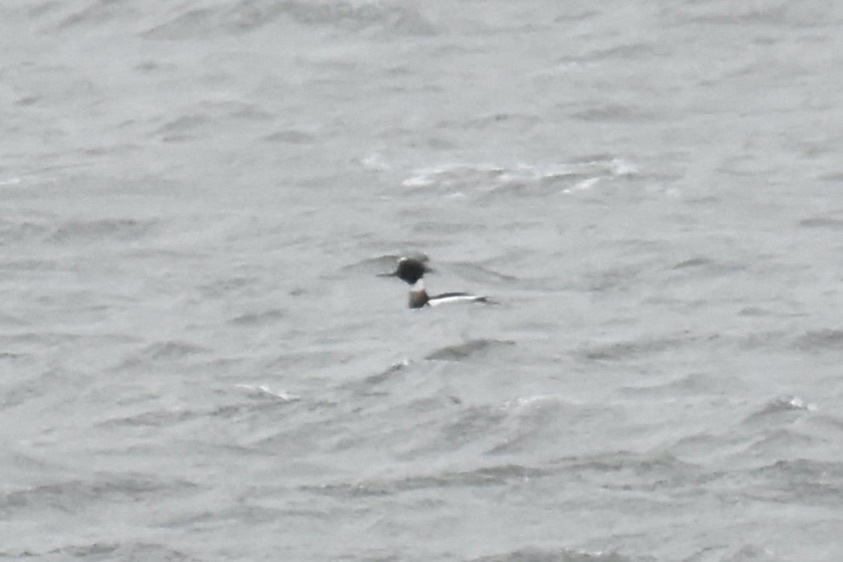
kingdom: Animalia
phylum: Chordata
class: Aves
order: Anseriformes
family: Anatidae
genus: Mergus
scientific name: Mergus serrator
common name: Red-breasted merganser
